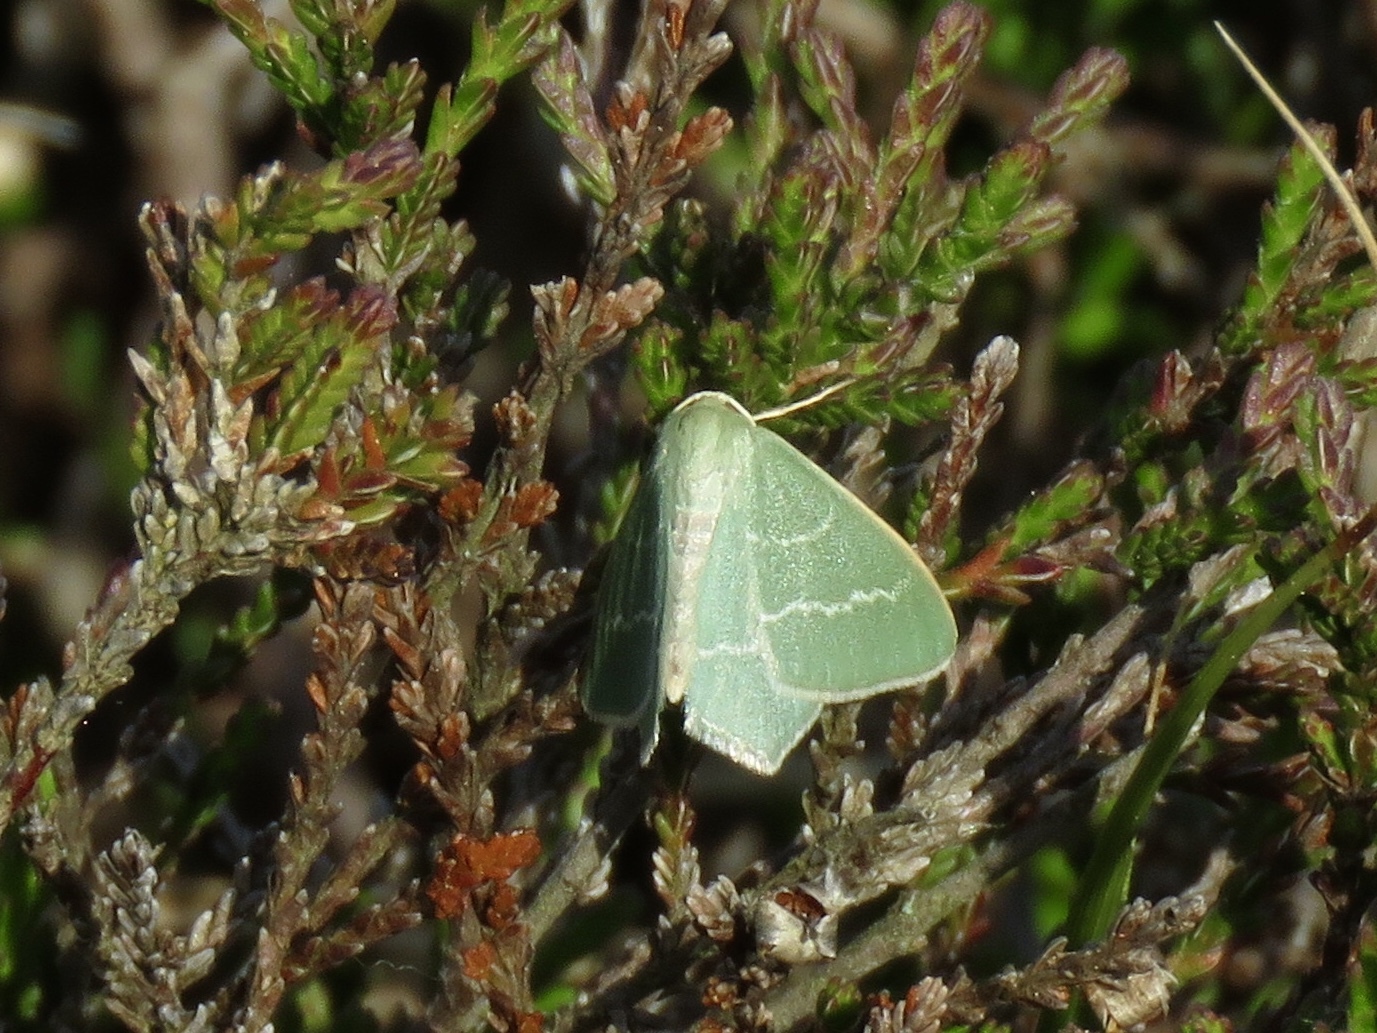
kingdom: Animalia
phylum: Arthropoda
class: Insecta
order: Lepidoptera
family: Geometridae
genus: Chlorissa
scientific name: Chlorissa viridata
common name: Small grass emerald
